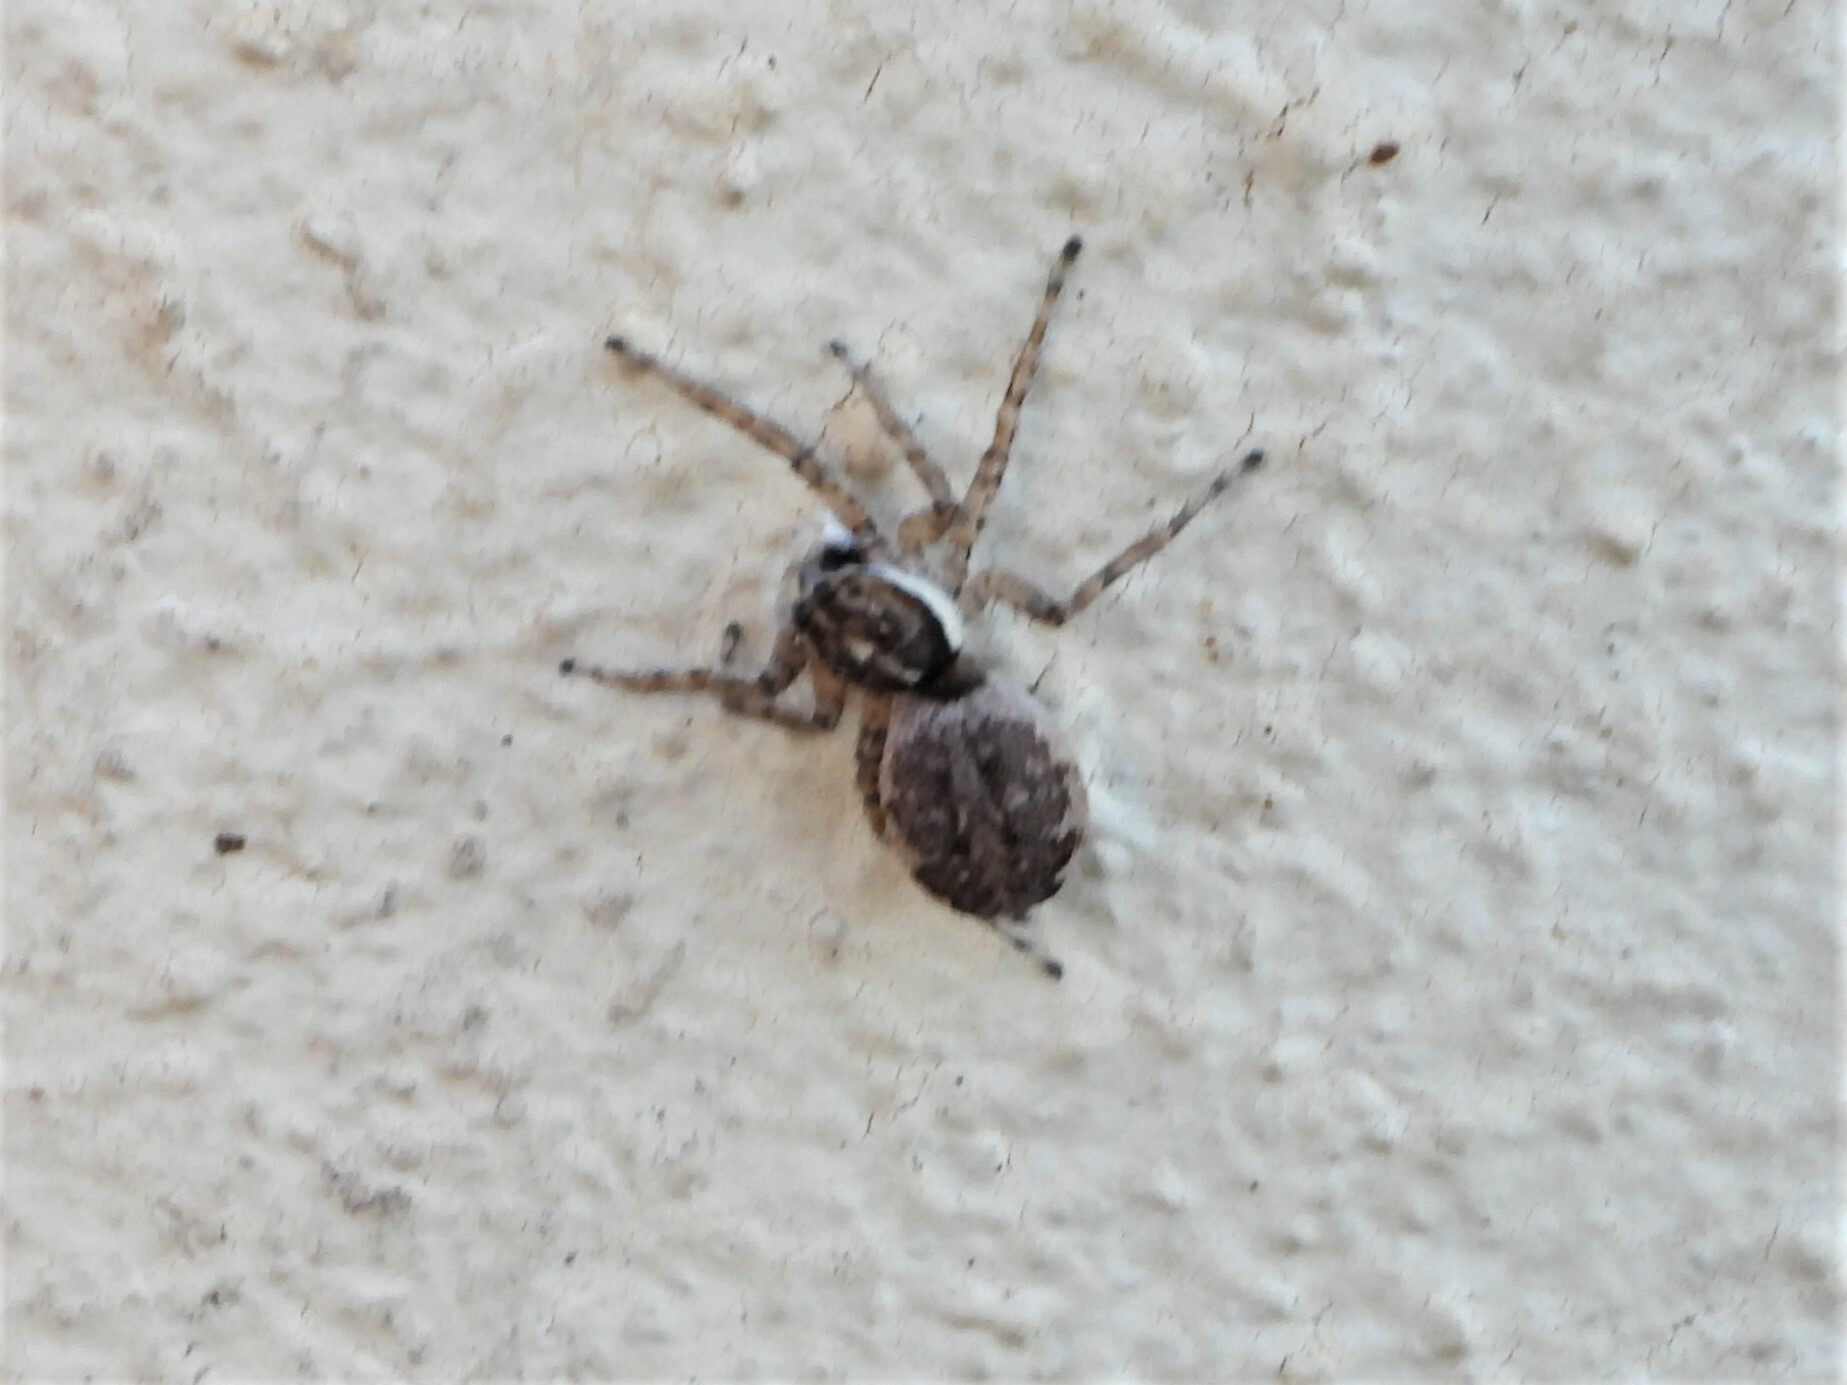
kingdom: Animalia
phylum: Arthropoda
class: Arachnida
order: Araneae
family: Salticidae
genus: Menemerus
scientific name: Menemerus semilimbatus
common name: Jumping spider
